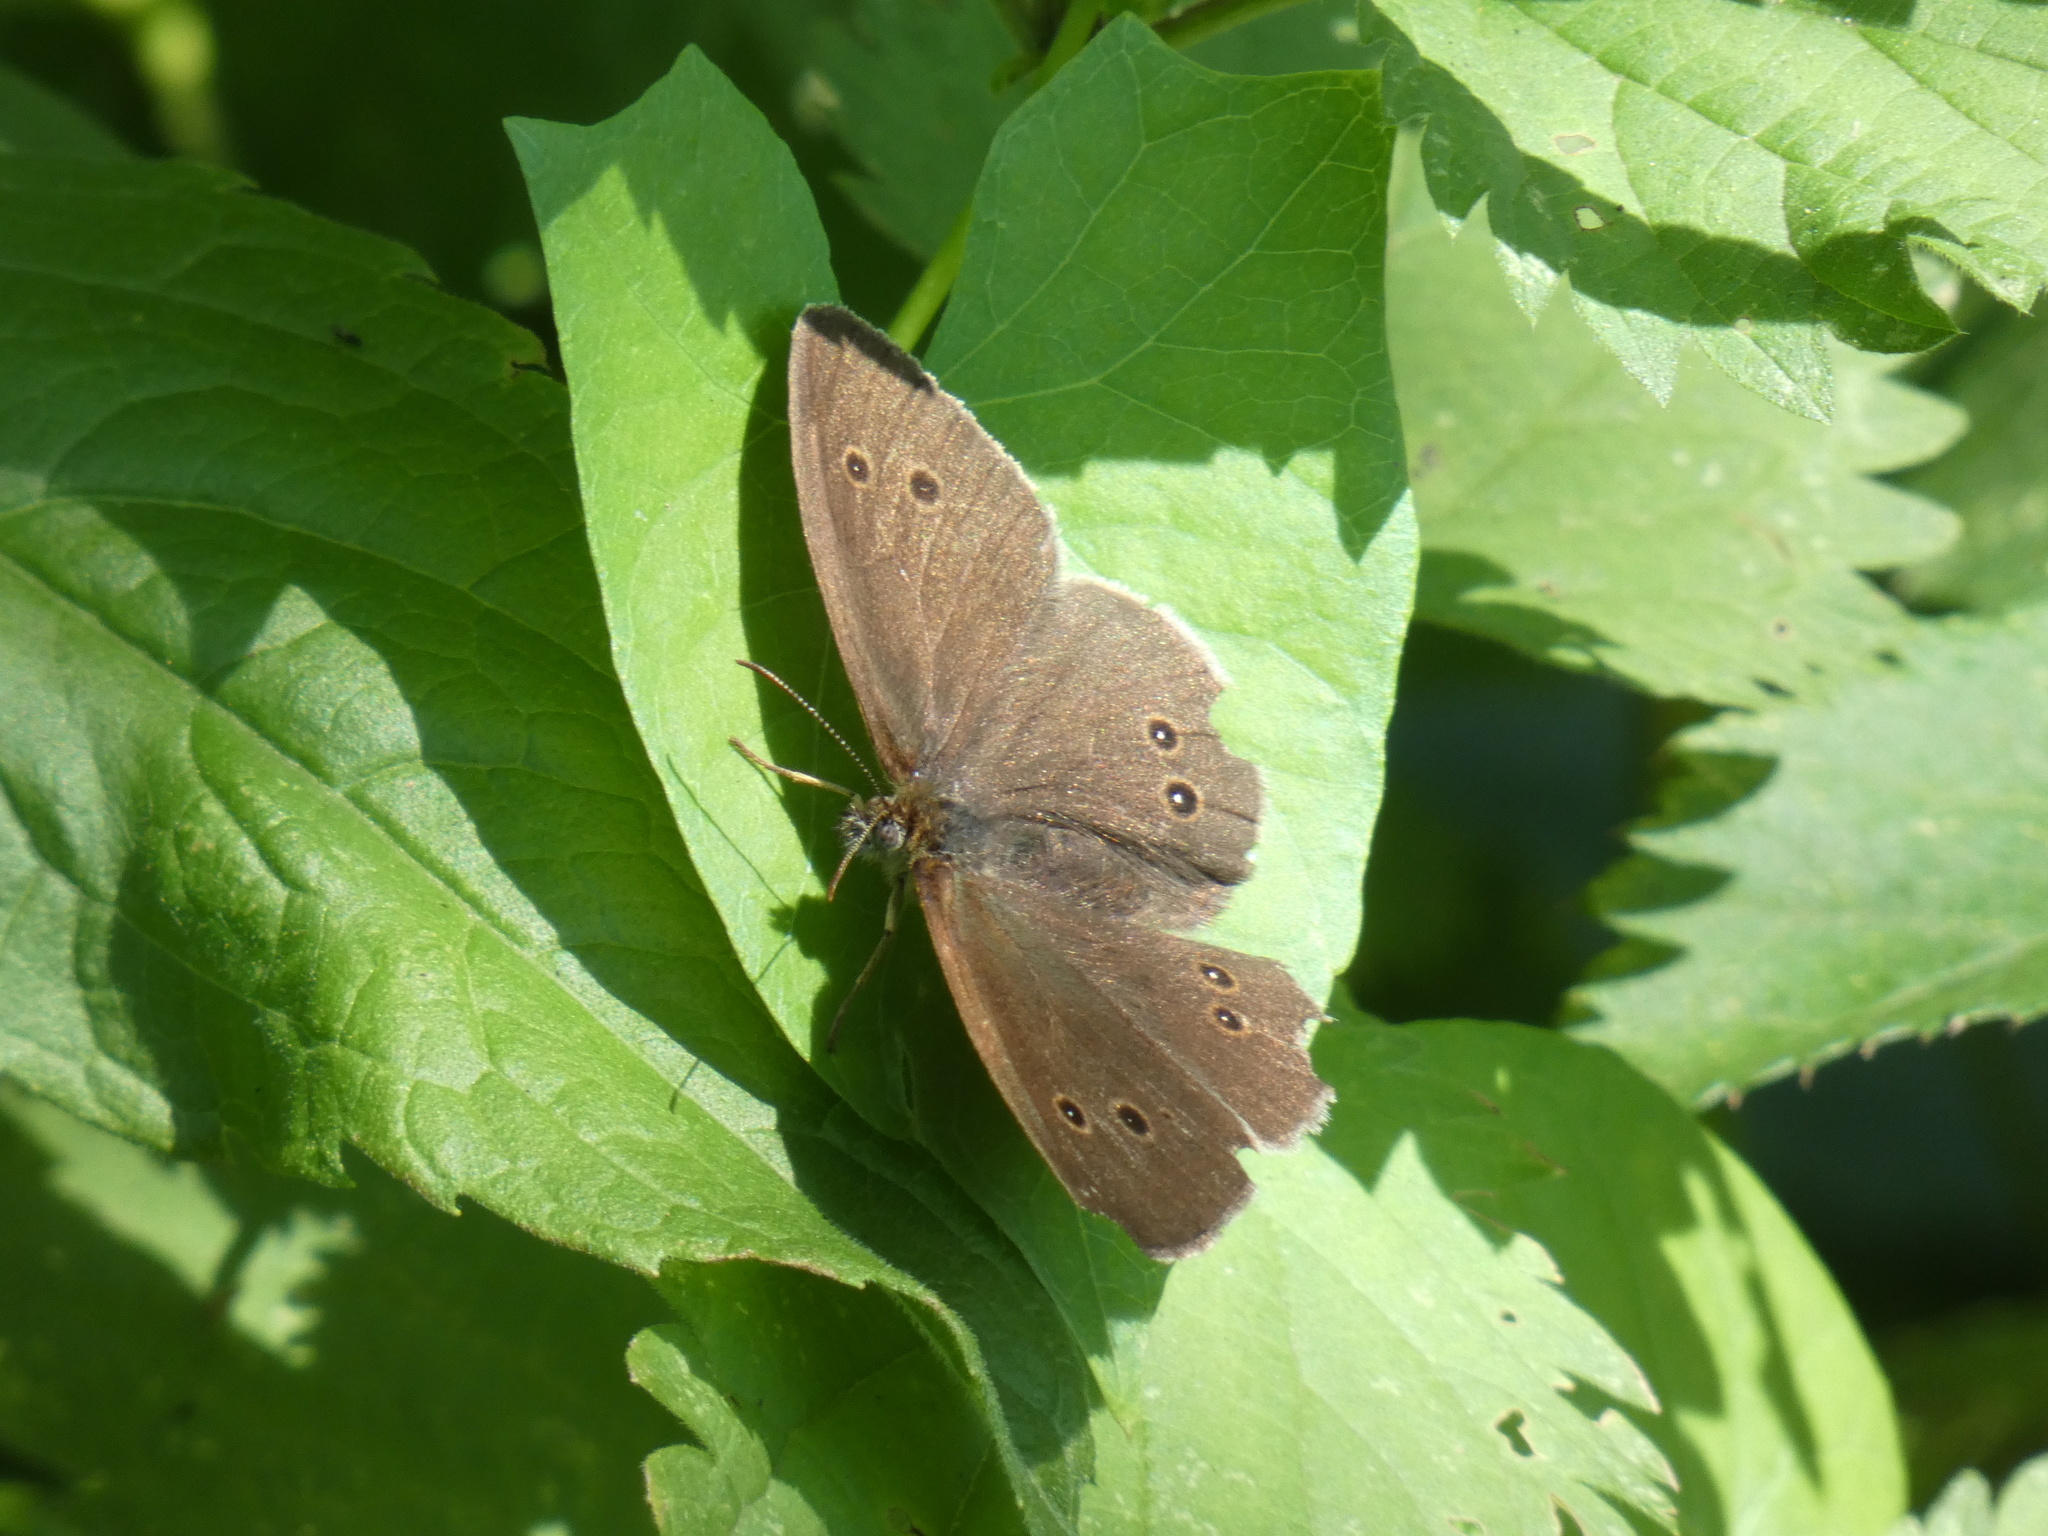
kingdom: Animalia
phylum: Arthropoda
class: Insecta
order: Lepidoptera
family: Nymphalidae
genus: Aphantopus
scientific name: Aphantopus hyperantus
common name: Ringlet
